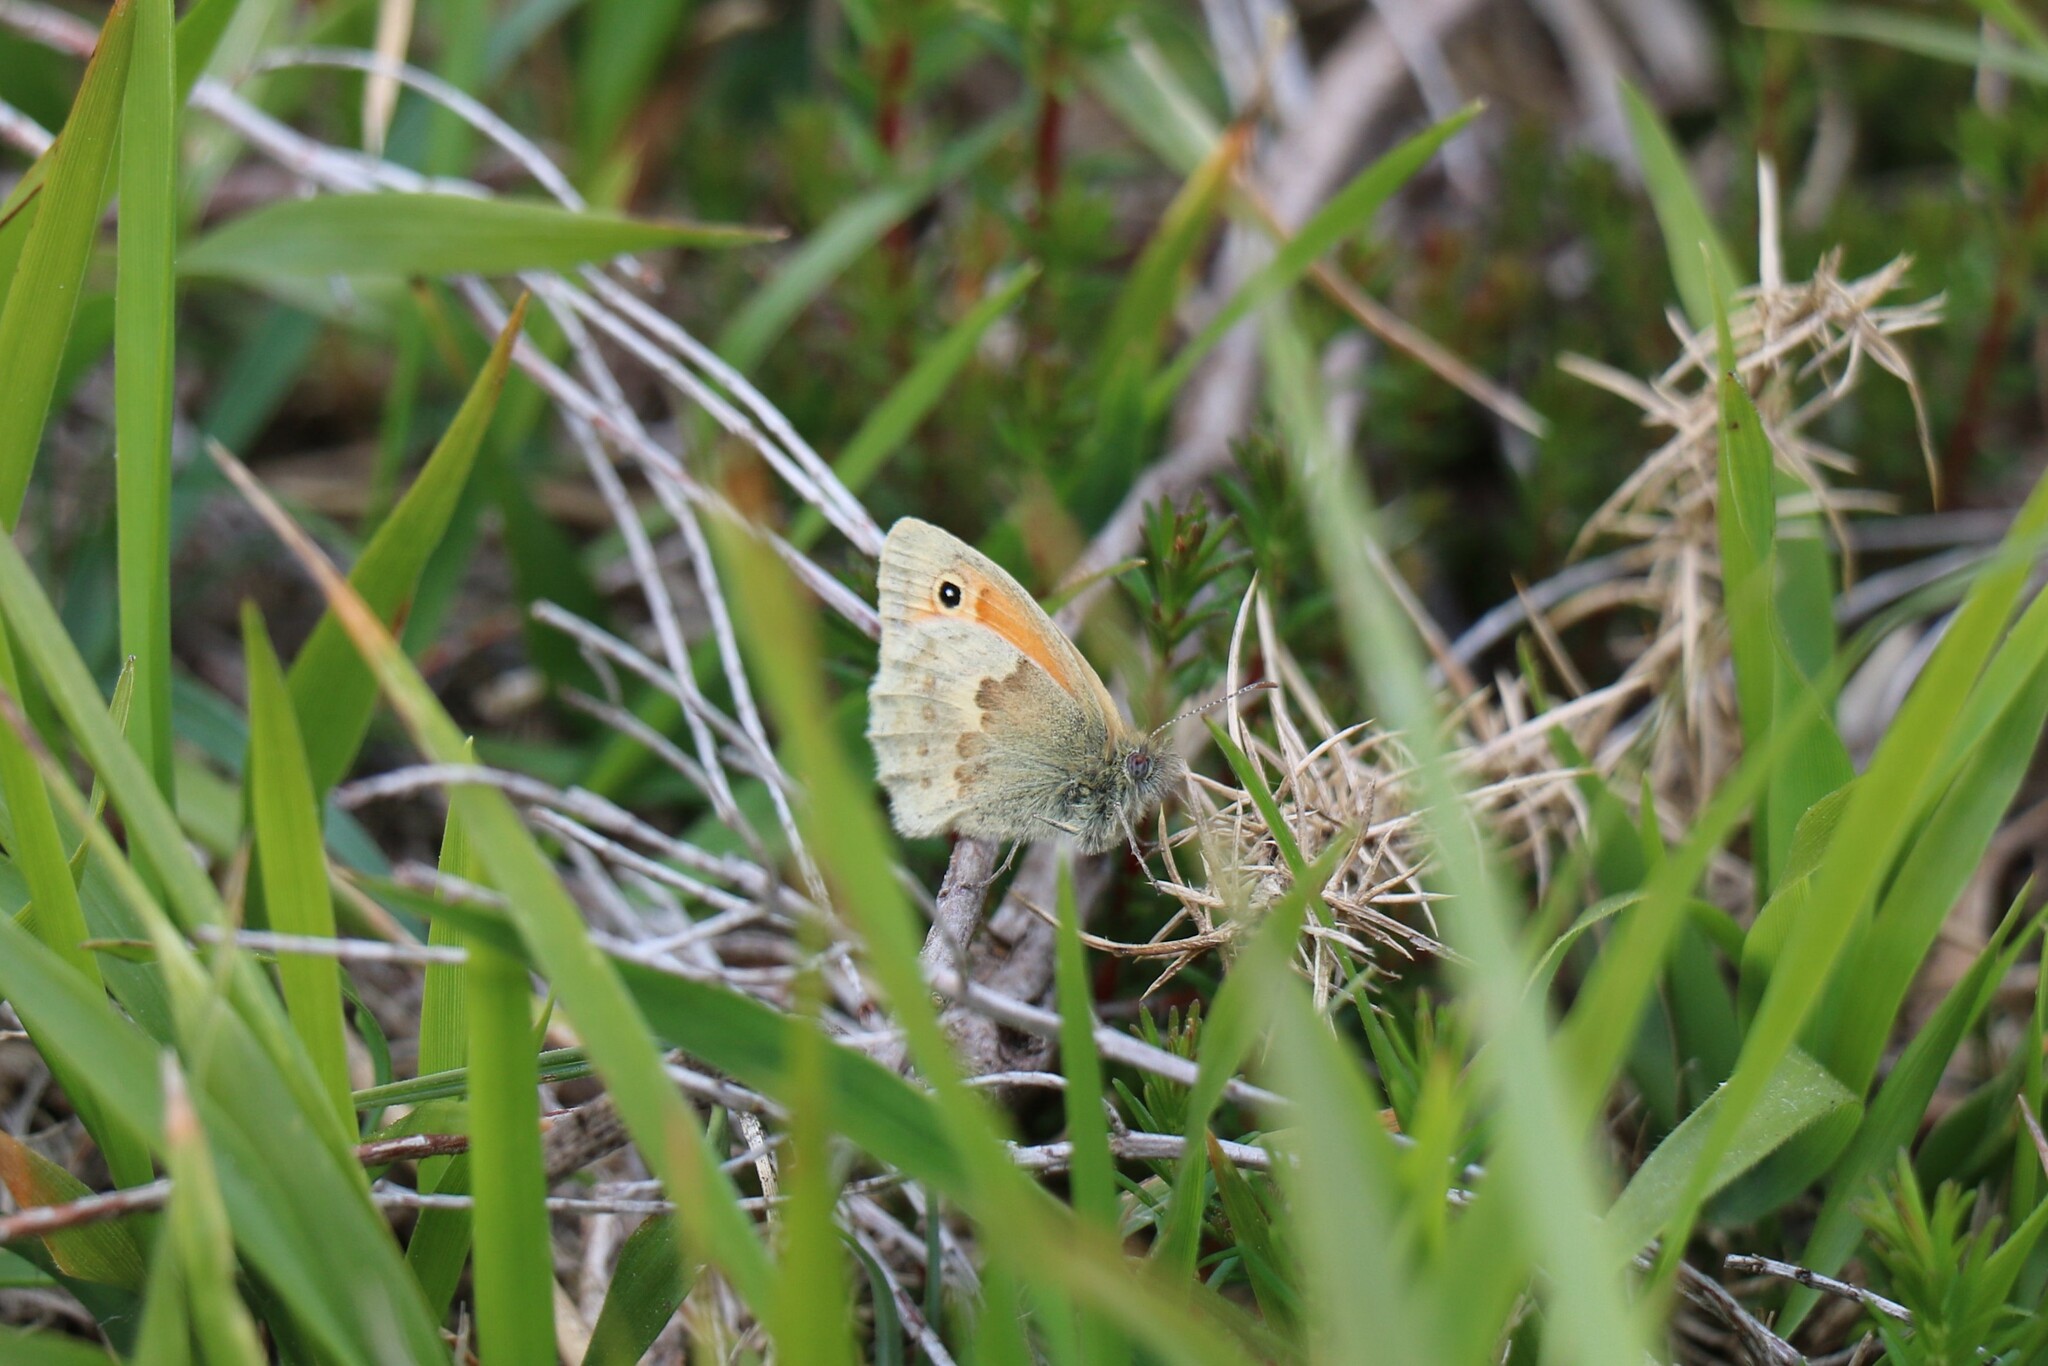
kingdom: Animalia
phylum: Arthropoda
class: Insecta
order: Lepidoptera
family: Nymphalidae
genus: Coenonympha
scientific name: Coenonympha pamphilus
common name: Small heath
